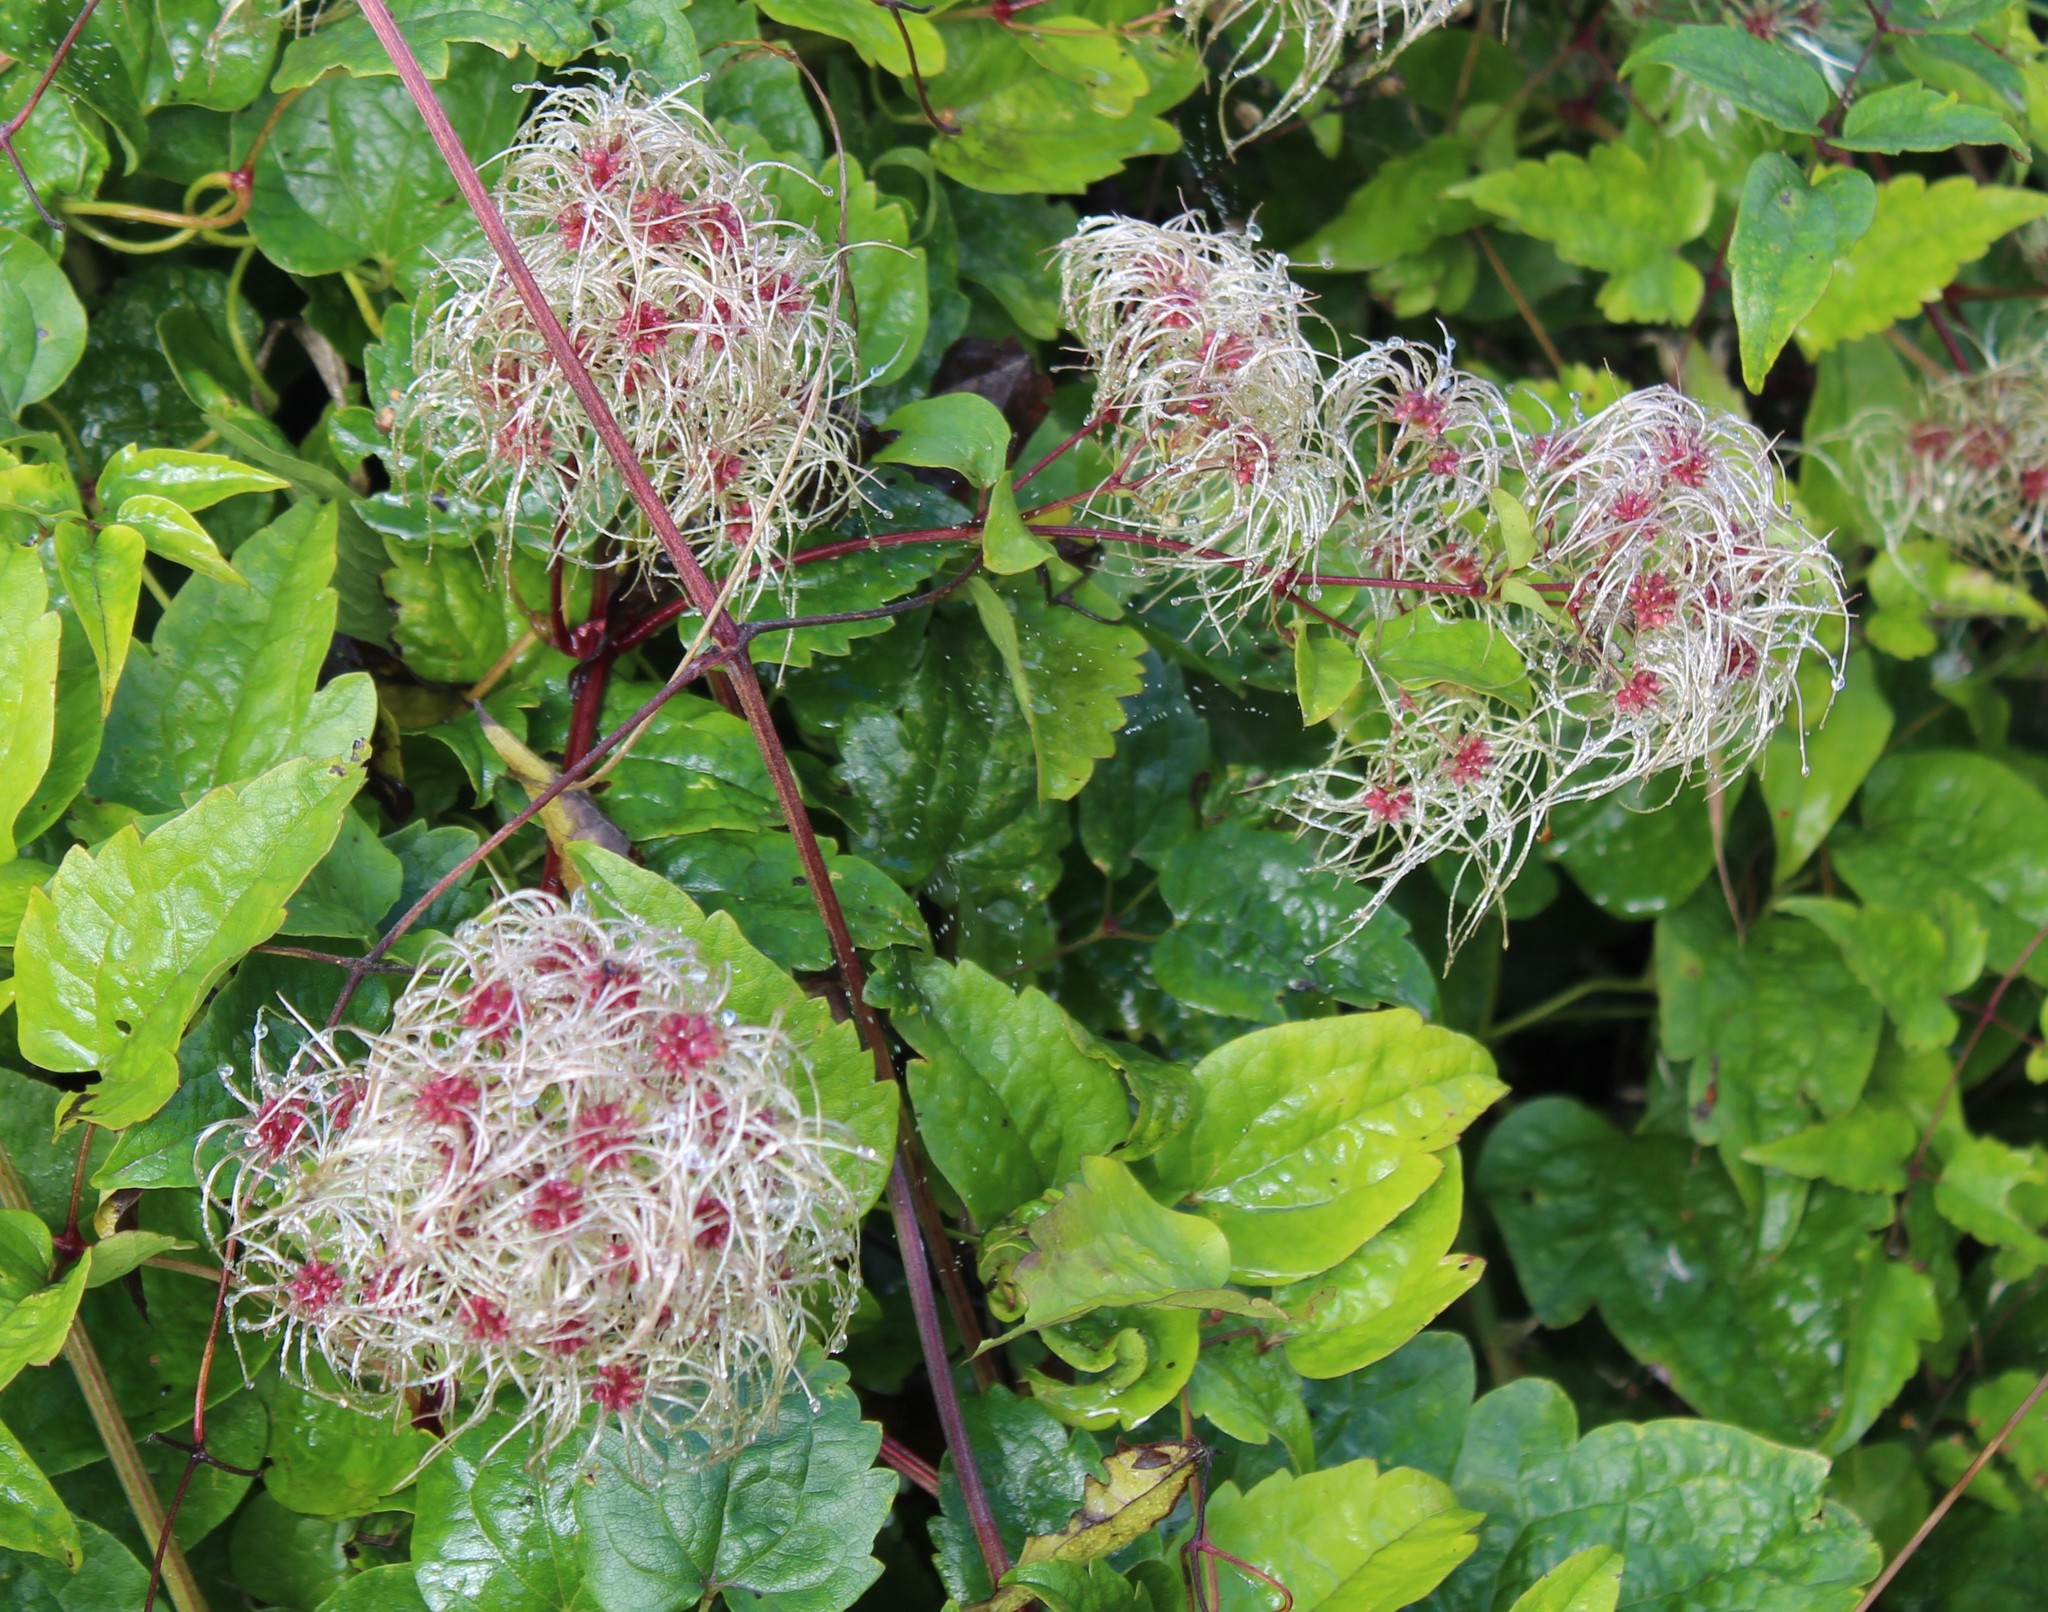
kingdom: Plantae
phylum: Tracheophyta
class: Magnoliopsida
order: Ranunculales
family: Ranunculaceae
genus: Clematis
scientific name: Clematis vitalba
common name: Evergreen clematis
